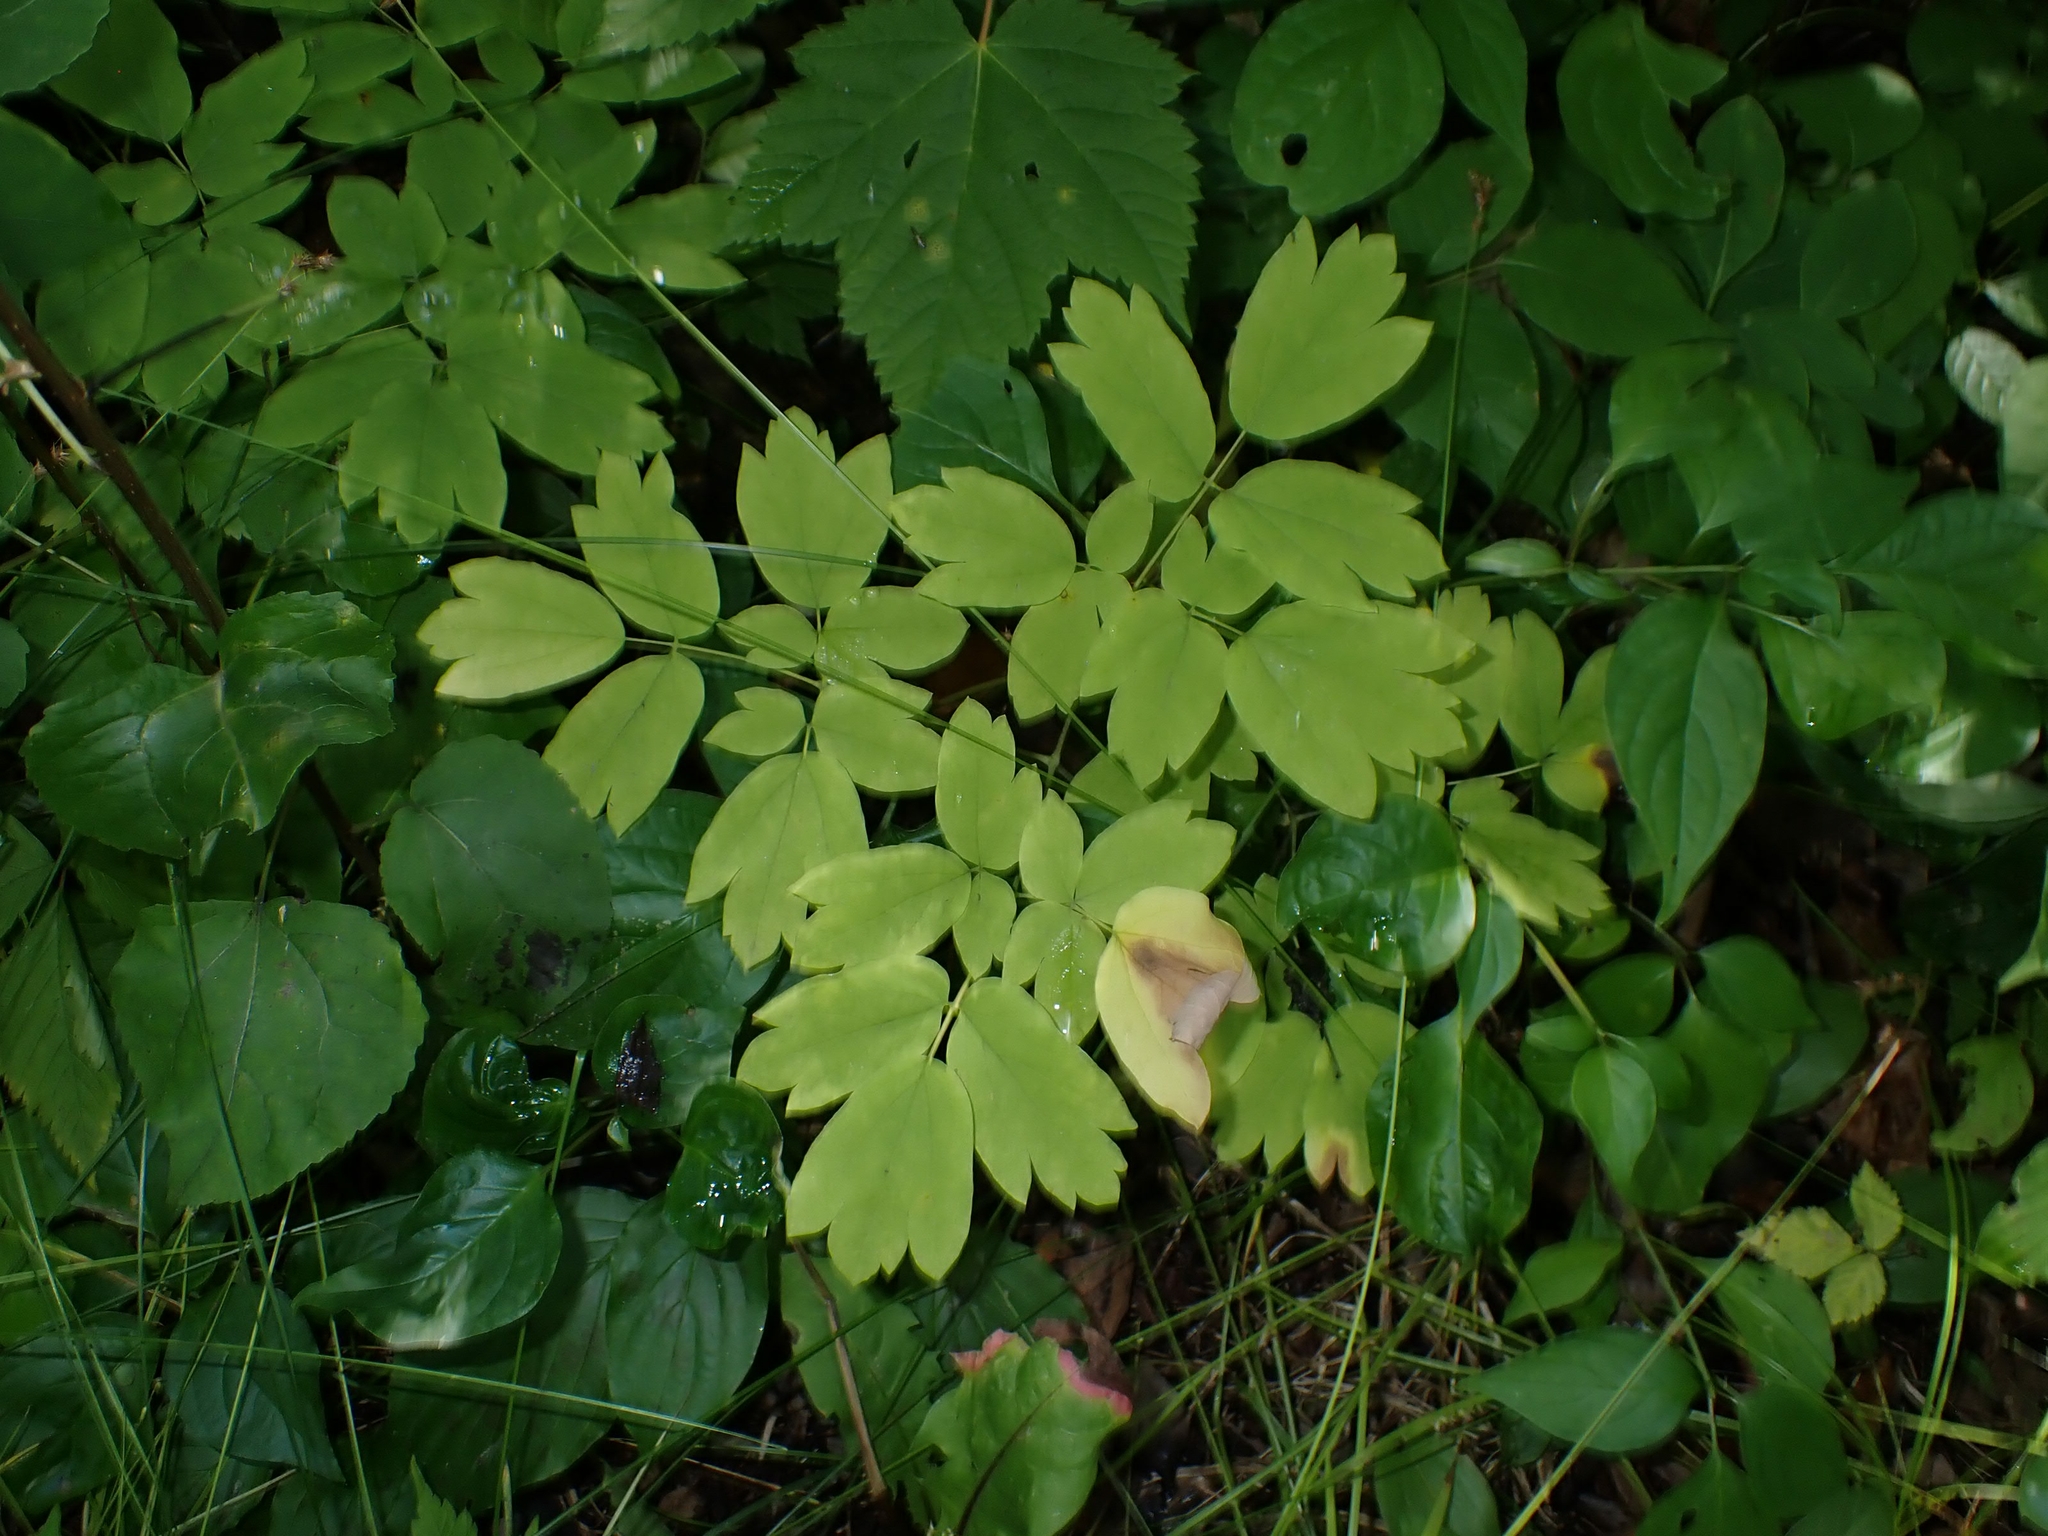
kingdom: Plantae
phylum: Tracheophyta
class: Magnoliopsida
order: Ranunculales
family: Berberidaceae
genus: Caulophyllum
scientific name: Caulophyllum thalictroides
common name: Blue cohosh
